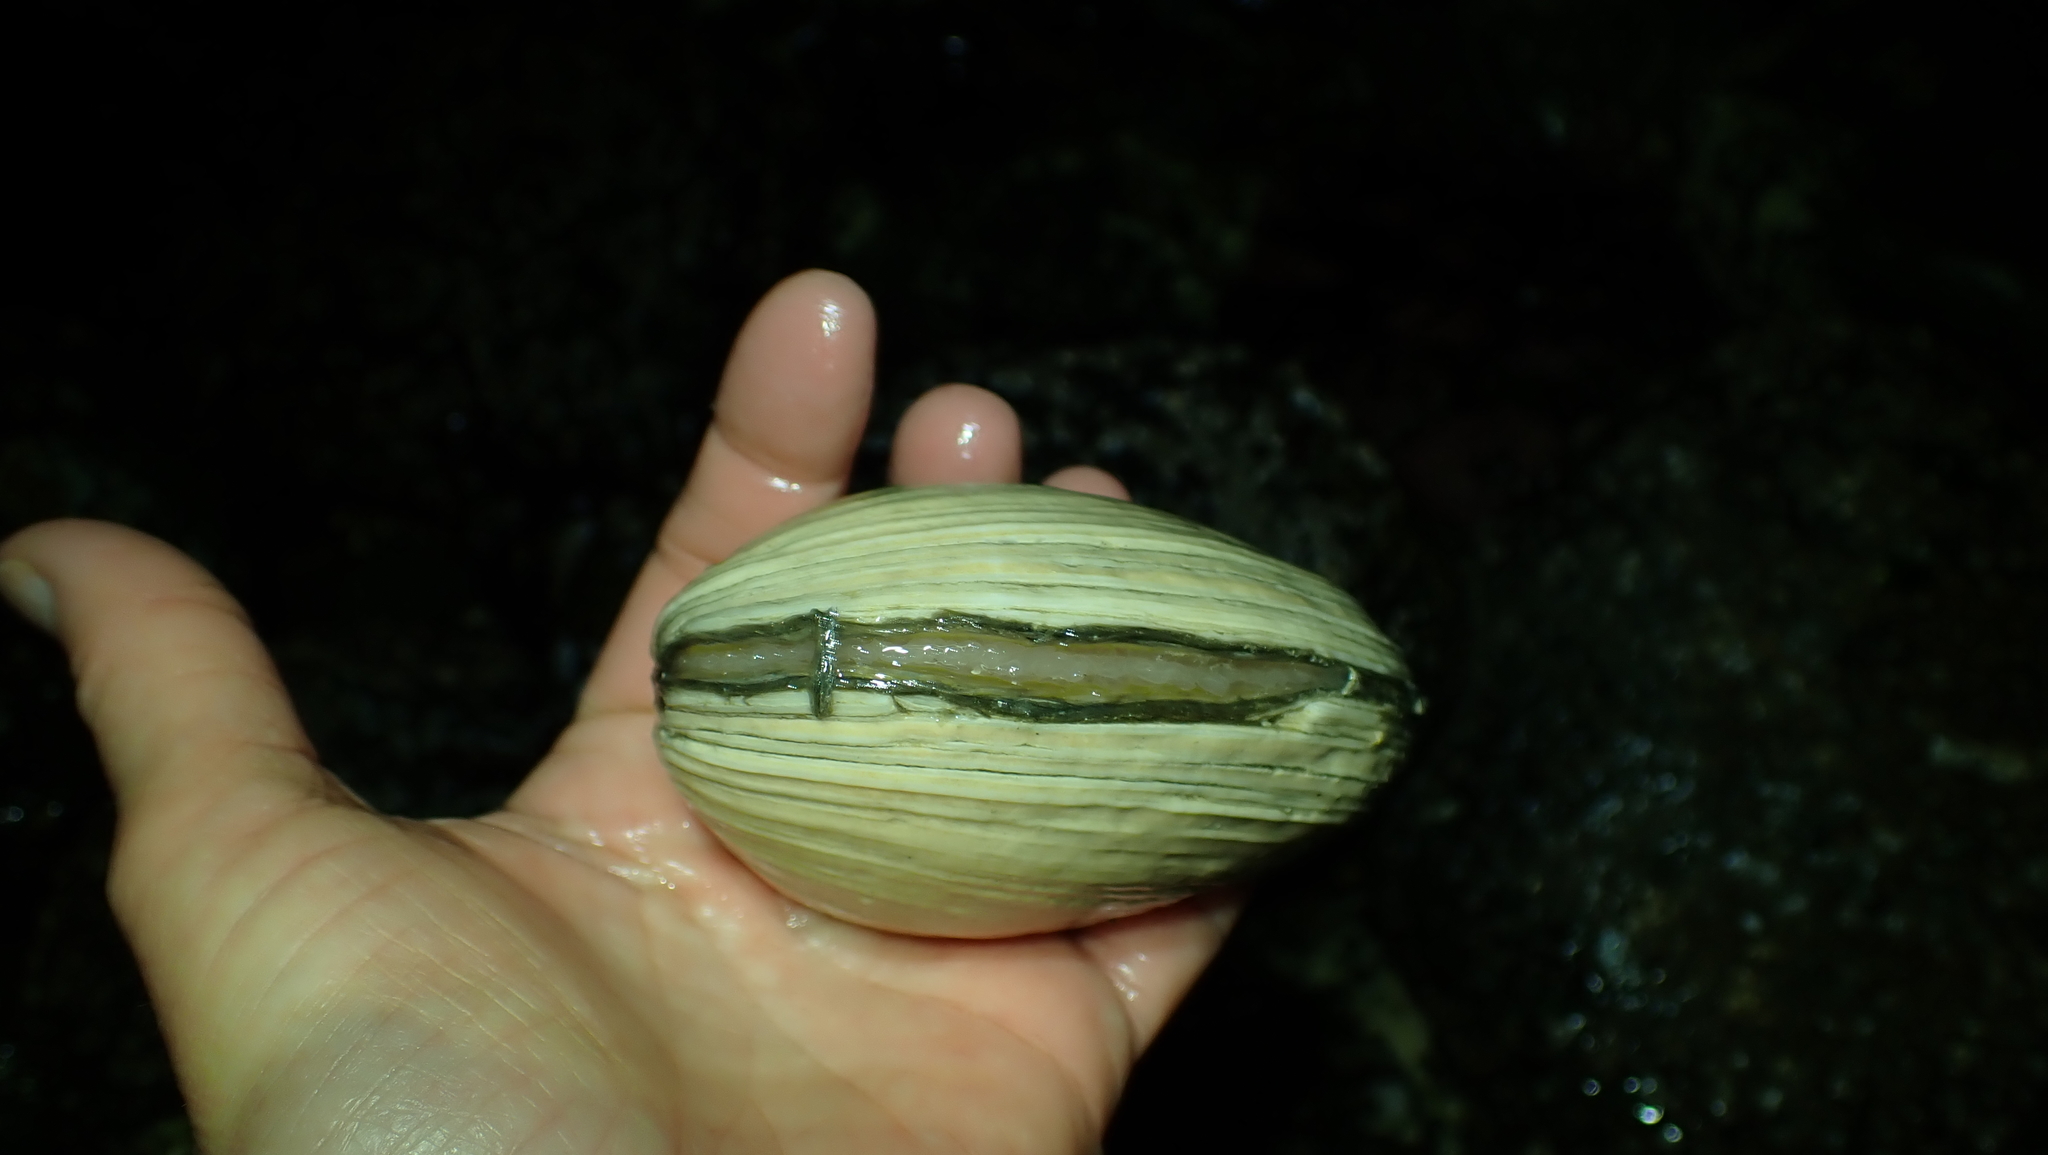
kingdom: Animalia
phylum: Mollusca
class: Bivalvia
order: Venerida
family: Veneridae
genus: Saxidomus
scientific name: Saxidomus gigantea
